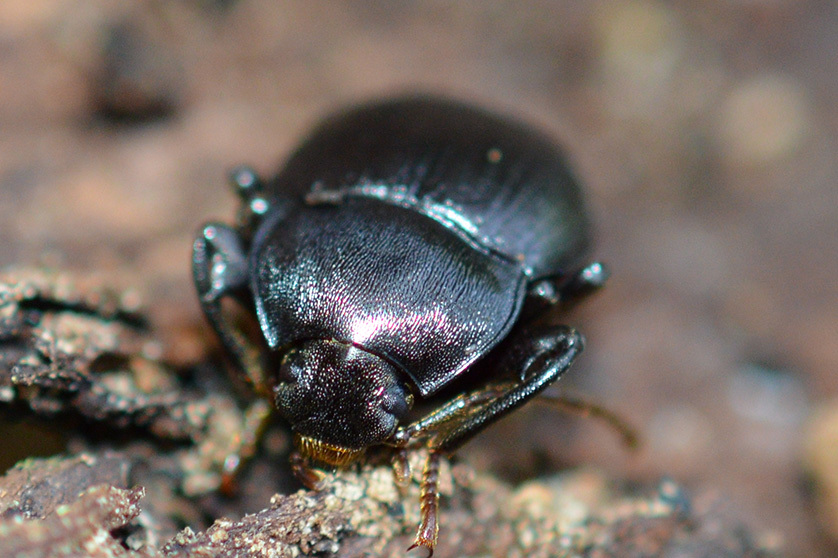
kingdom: Animalia
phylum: Arthropoda
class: Insecta
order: Coleoptera
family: Tenebrionidae
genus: Accanthopus
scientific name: Accanthopus velikensis
